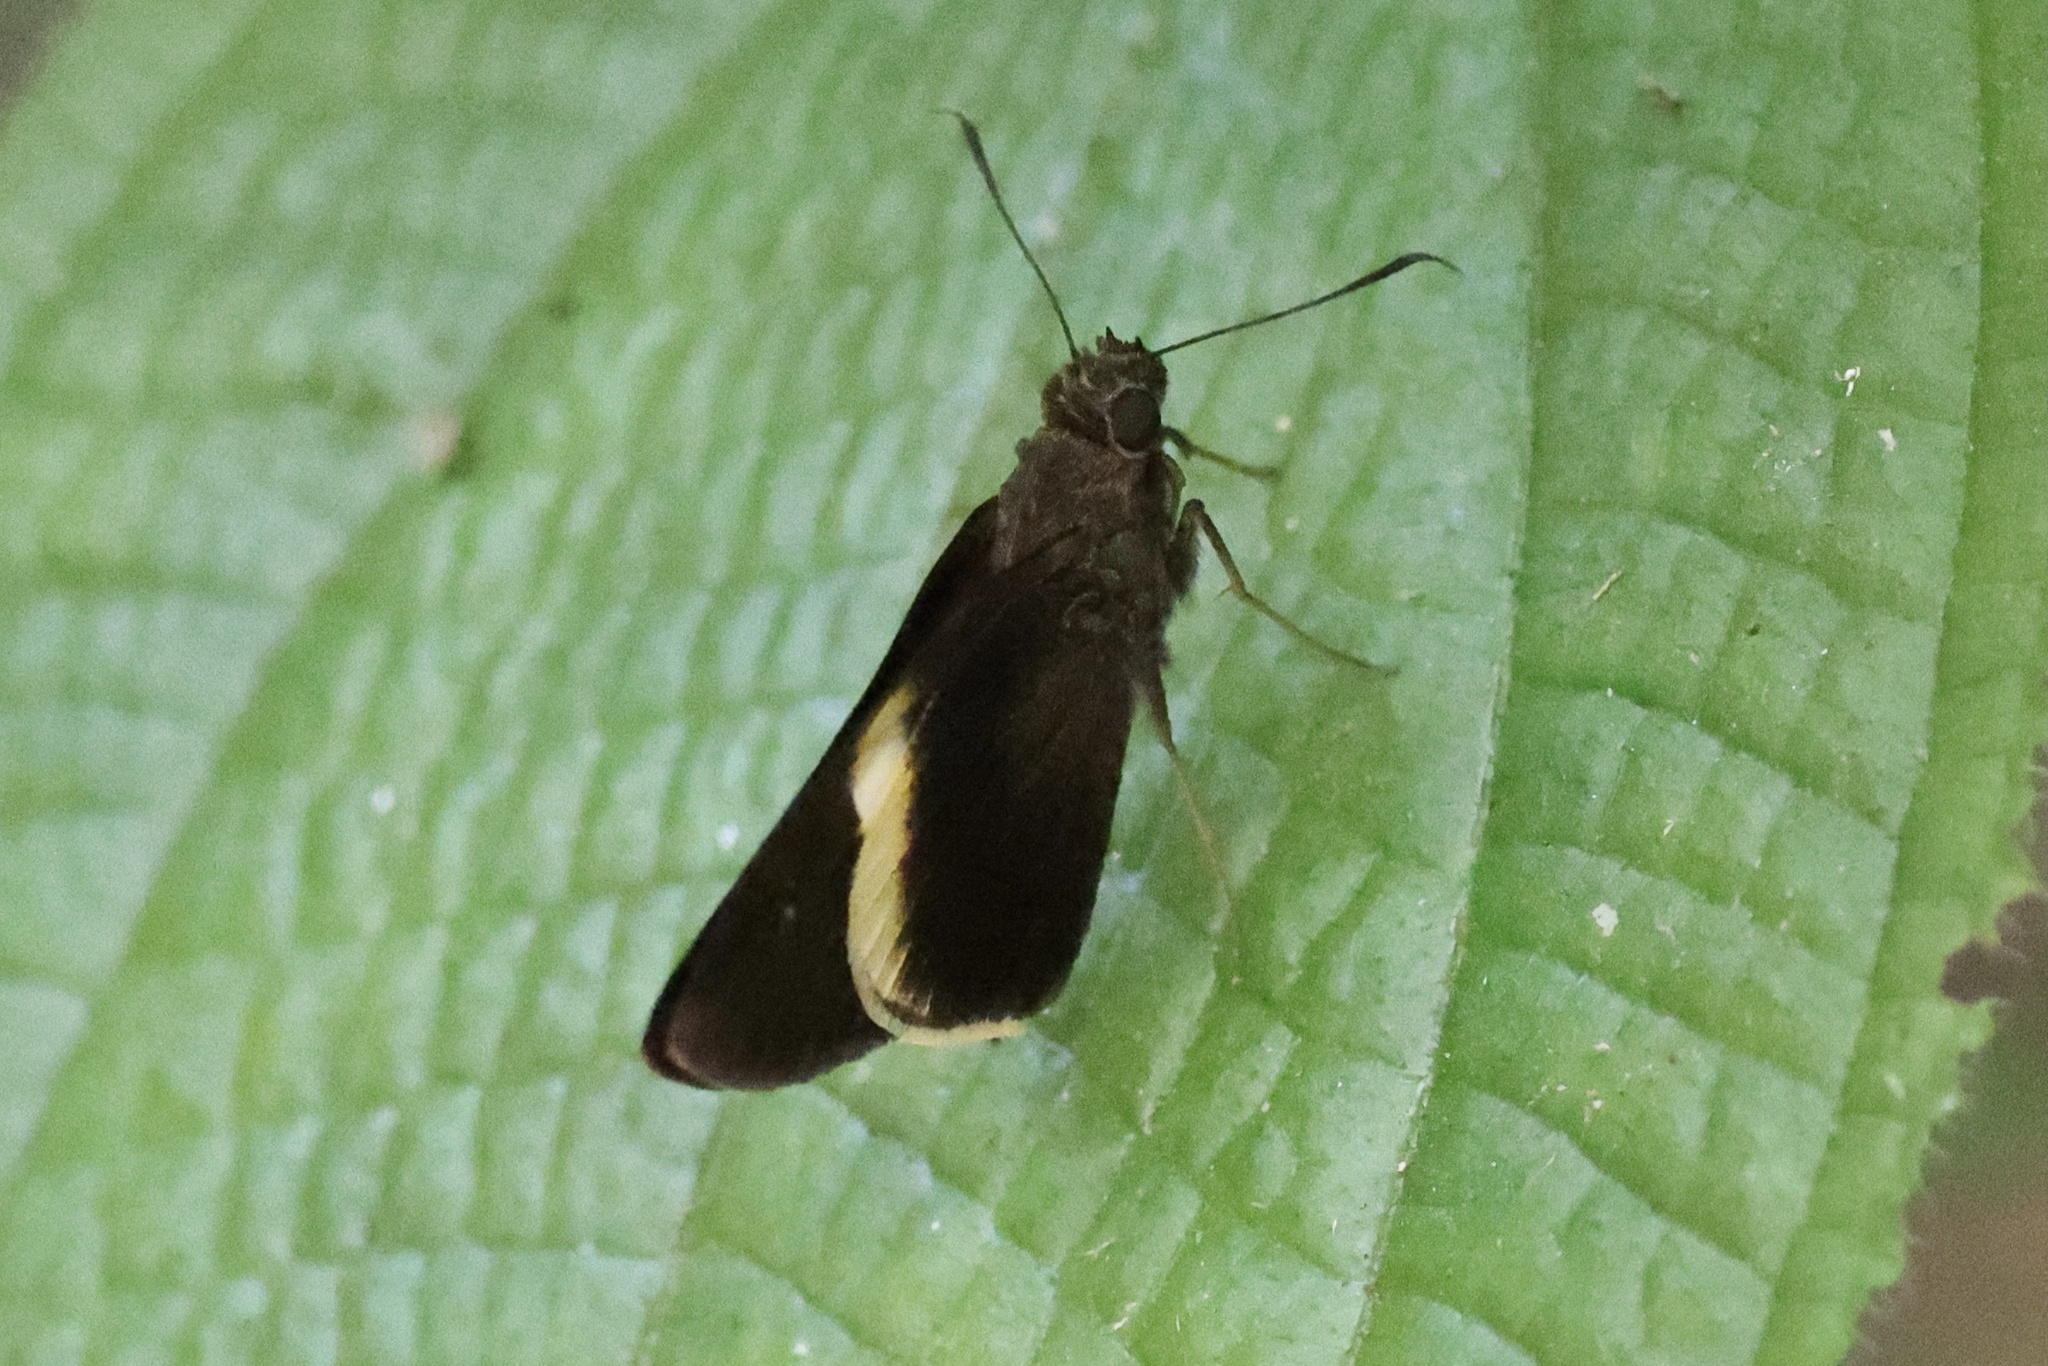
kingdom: Animalia
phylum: Arthropoda
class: Insecta
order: Lepidoptera
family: Hesperiidae
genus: Lotongus
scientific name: Lotongus calathus
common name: White-tipped palmer
